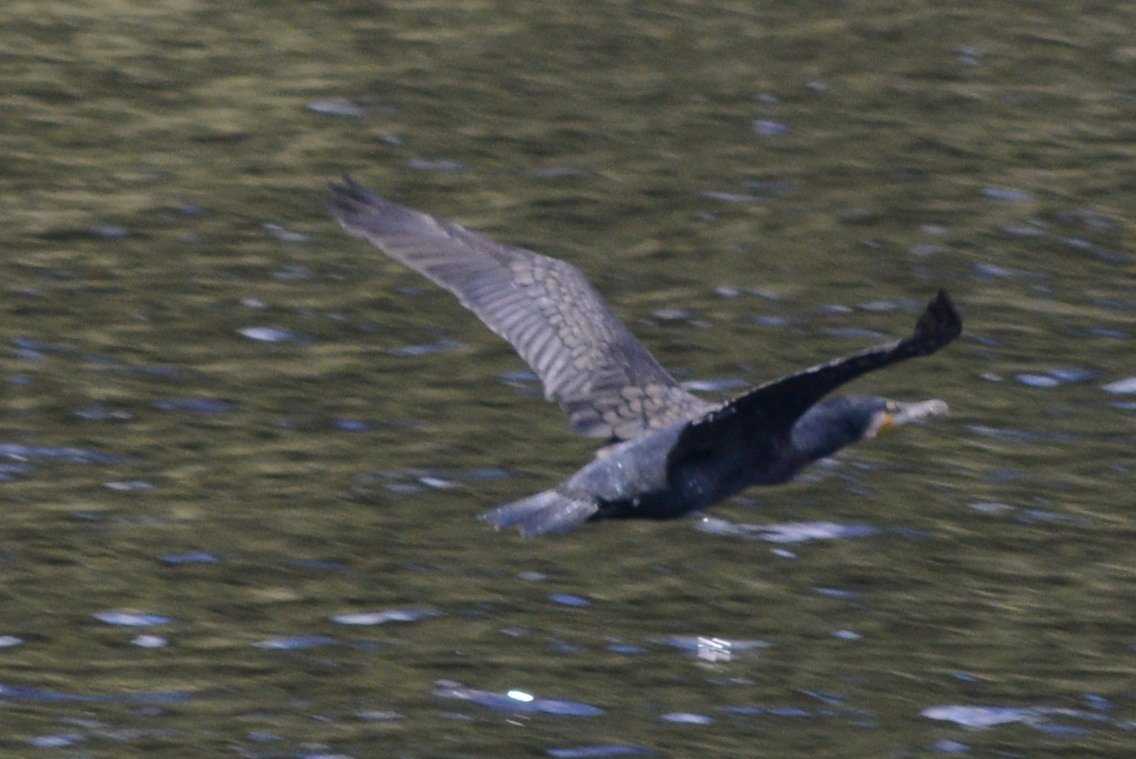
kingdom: Animalia
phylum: Chordata
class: Aves
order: Suliformes
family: Phalacrocoracidae
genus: Phalacrocorax
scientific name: Phalacrocorax carbo
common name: Great cormorant
